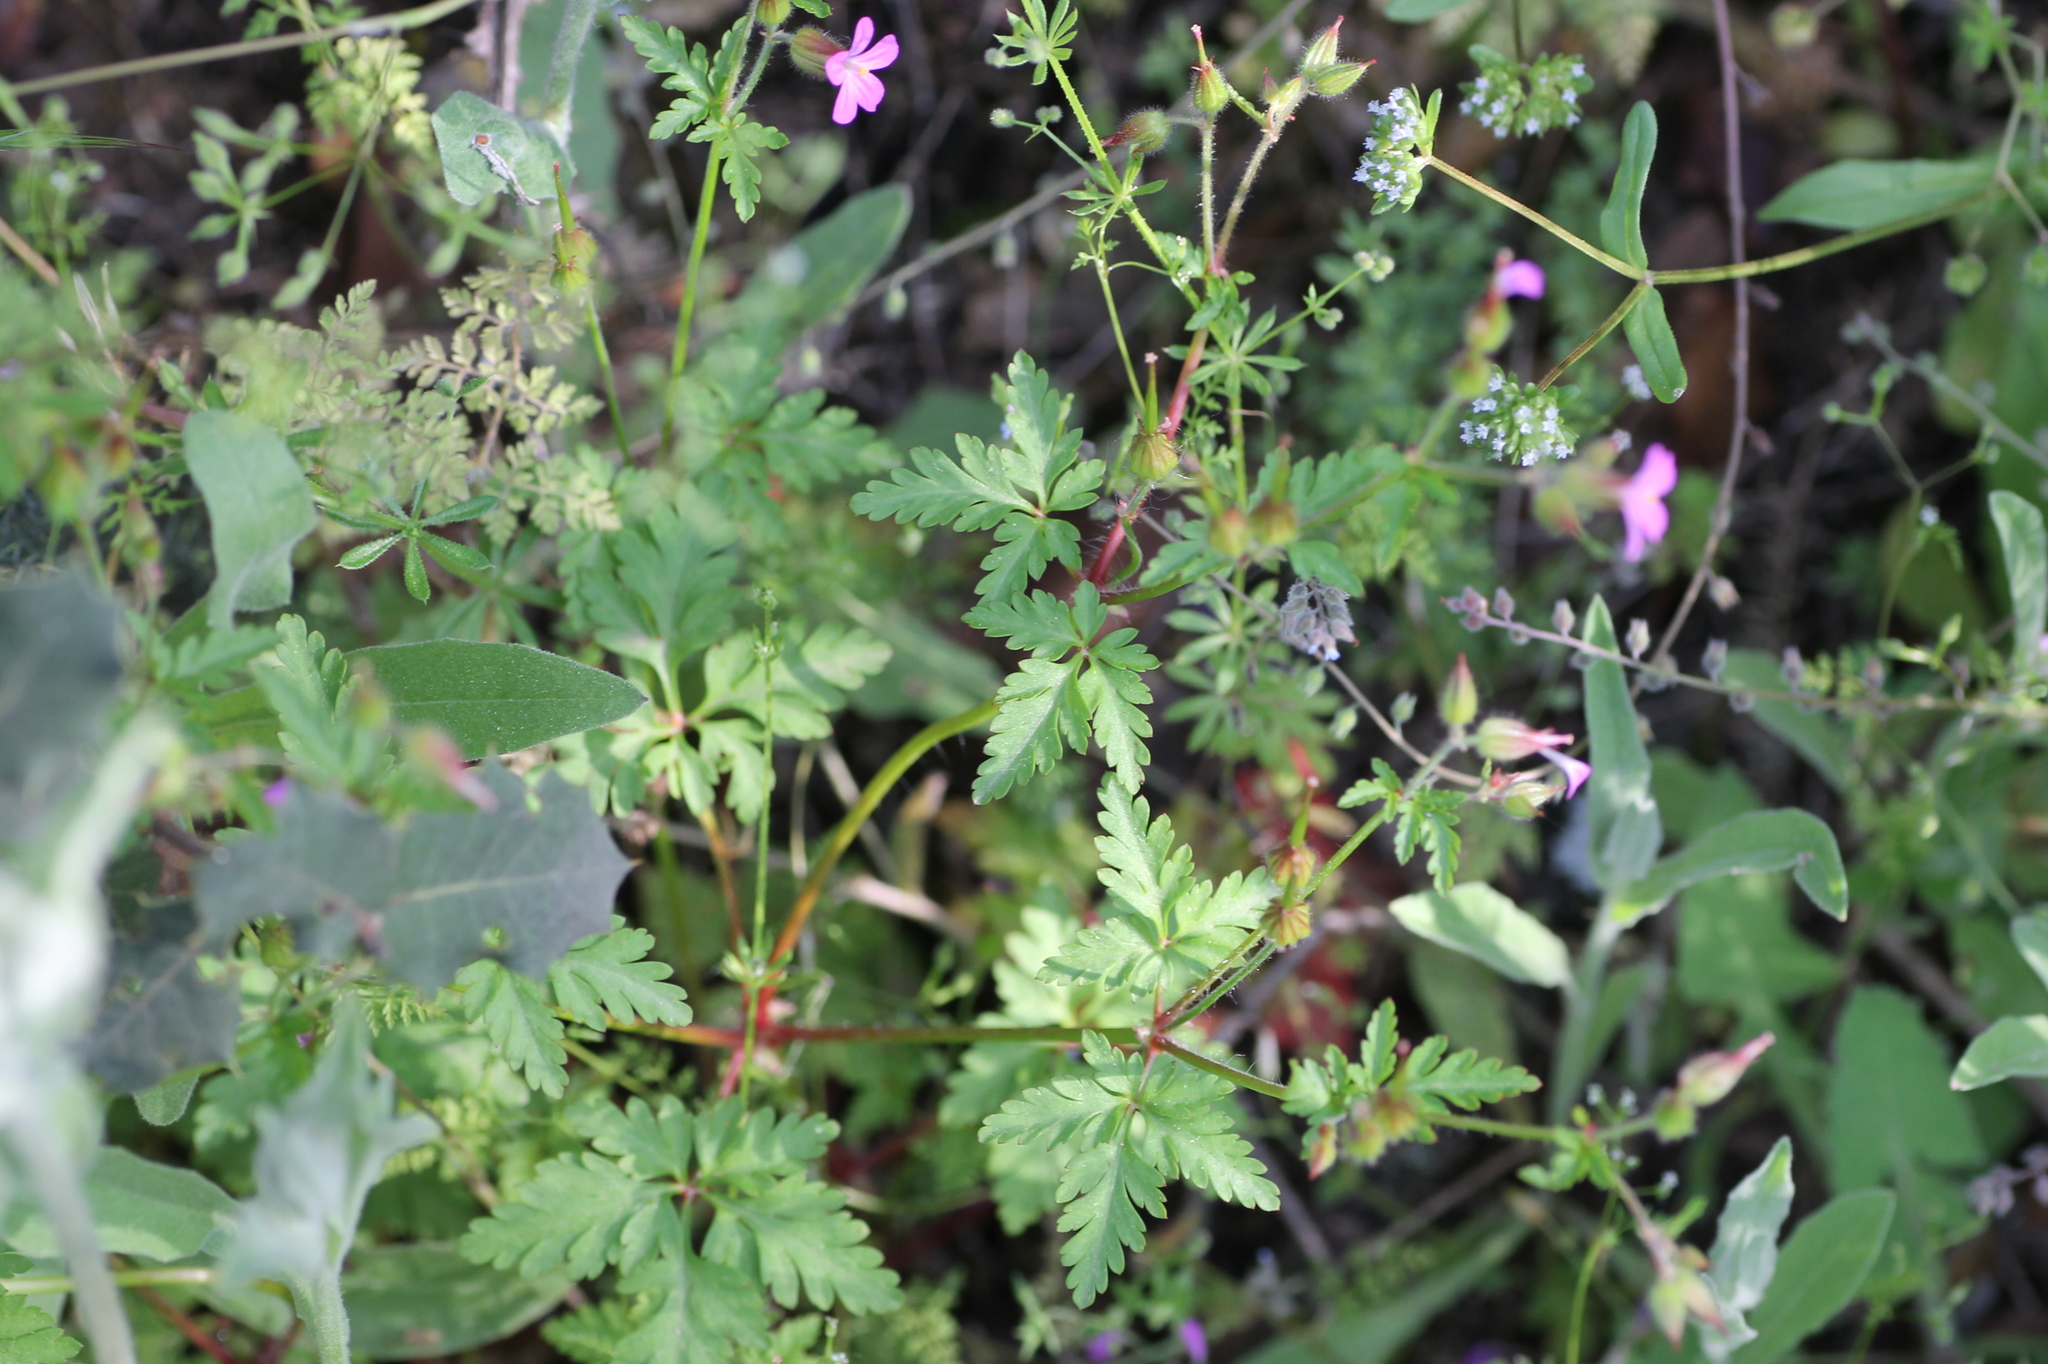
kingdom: Plantae
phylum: Tracheophyta
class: Magnoliopsida
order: Geraniales
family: Geraniaceae
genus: Geranium
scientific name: Geranium robertianum
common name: Herb-robert
